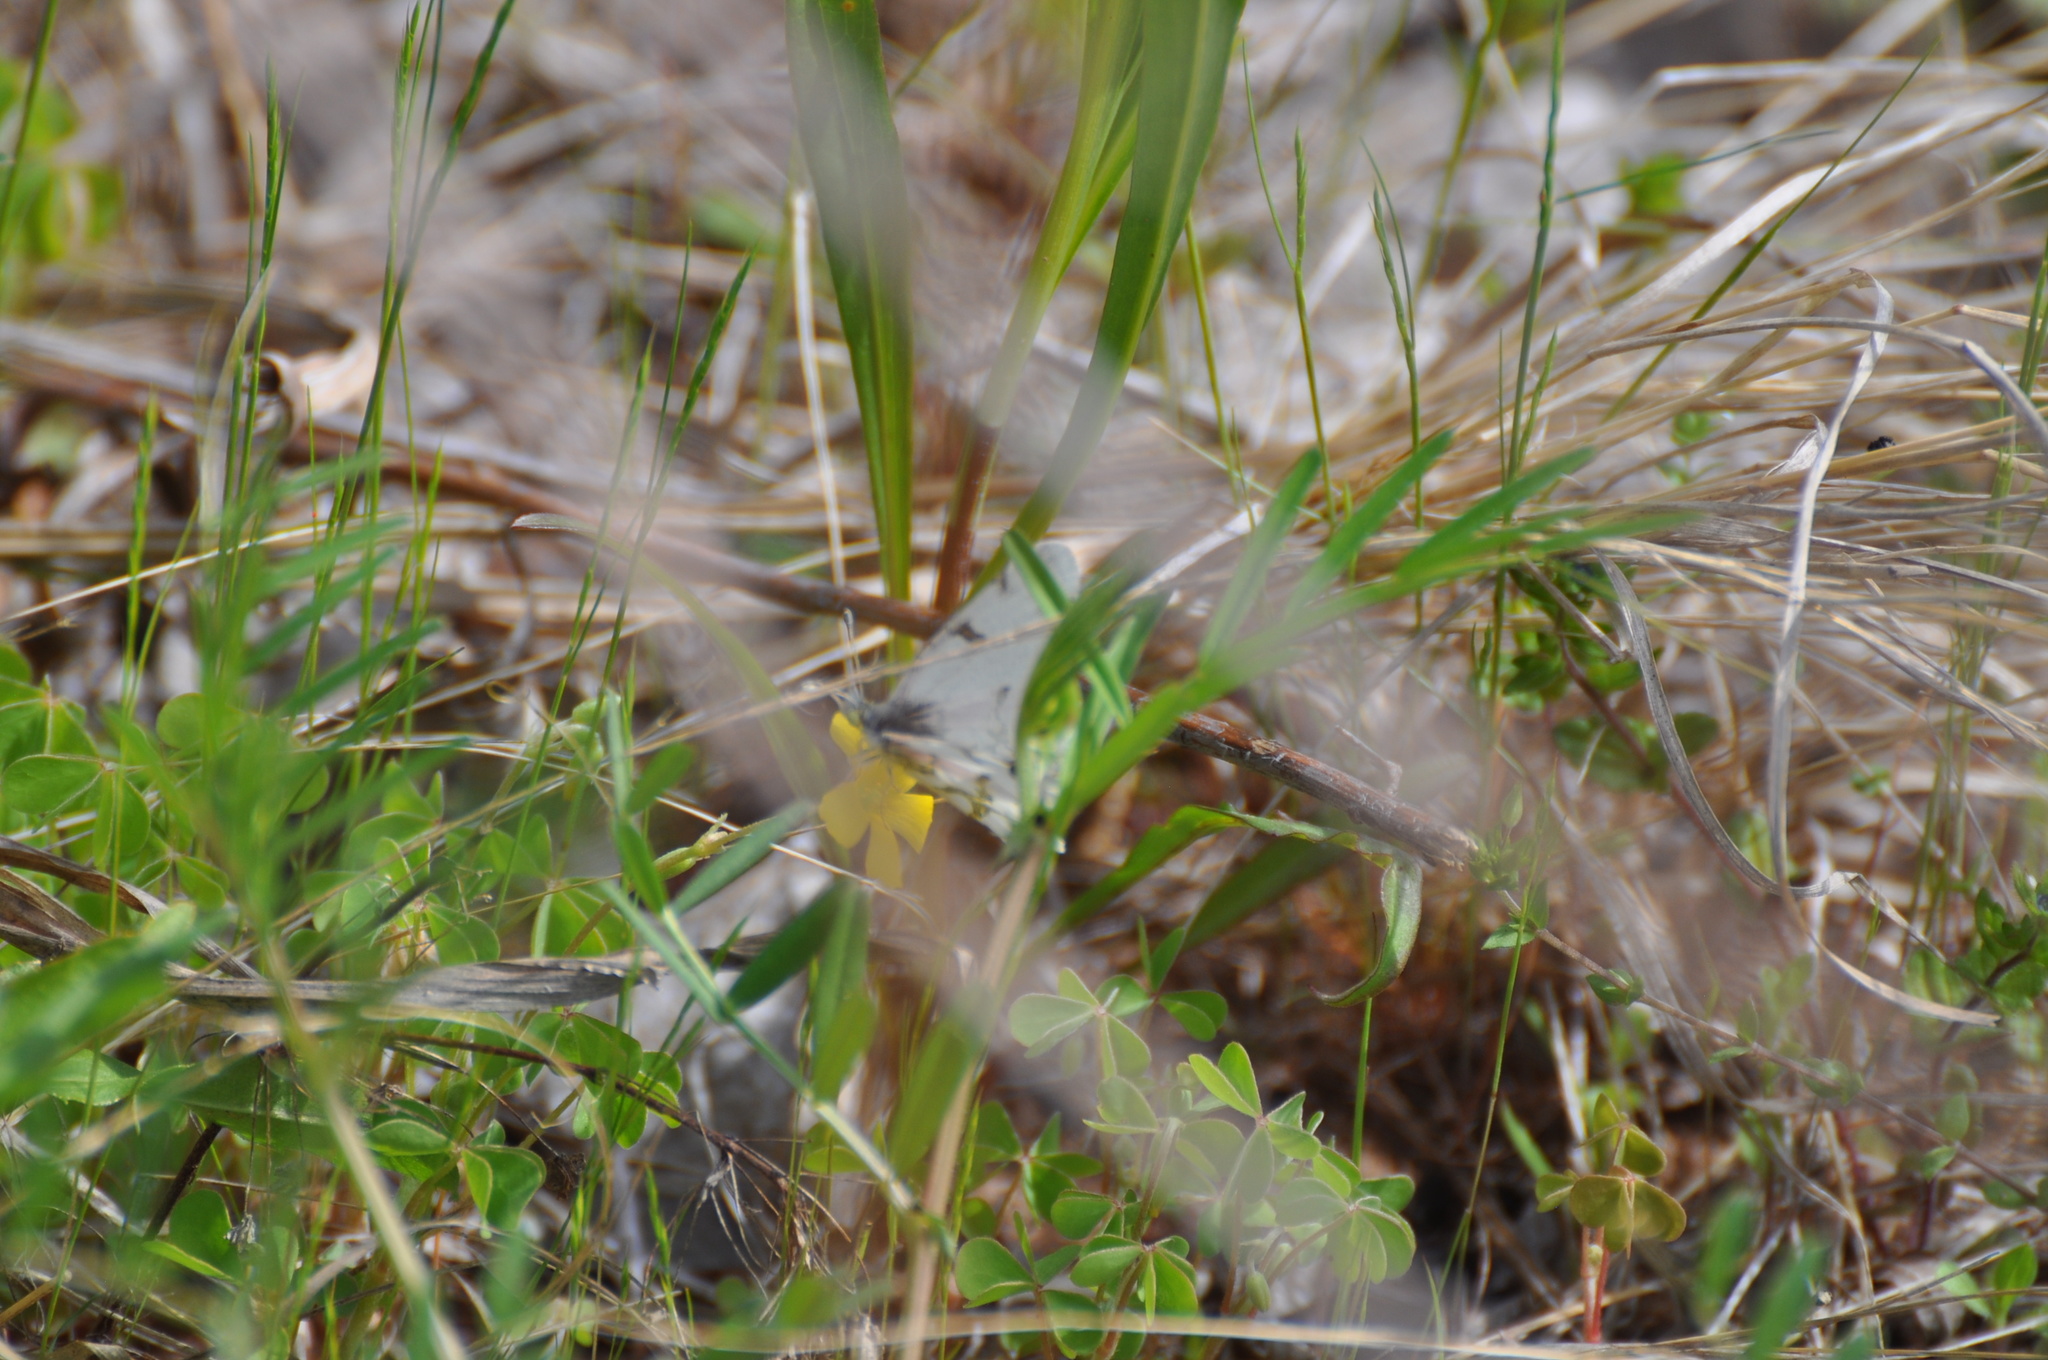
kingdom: Animalia
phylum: Arthropoda
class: Insecta
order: Lepidoptera
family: Pieridae
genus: Euchloe
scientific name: Euchloe olympia
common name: Olympia
